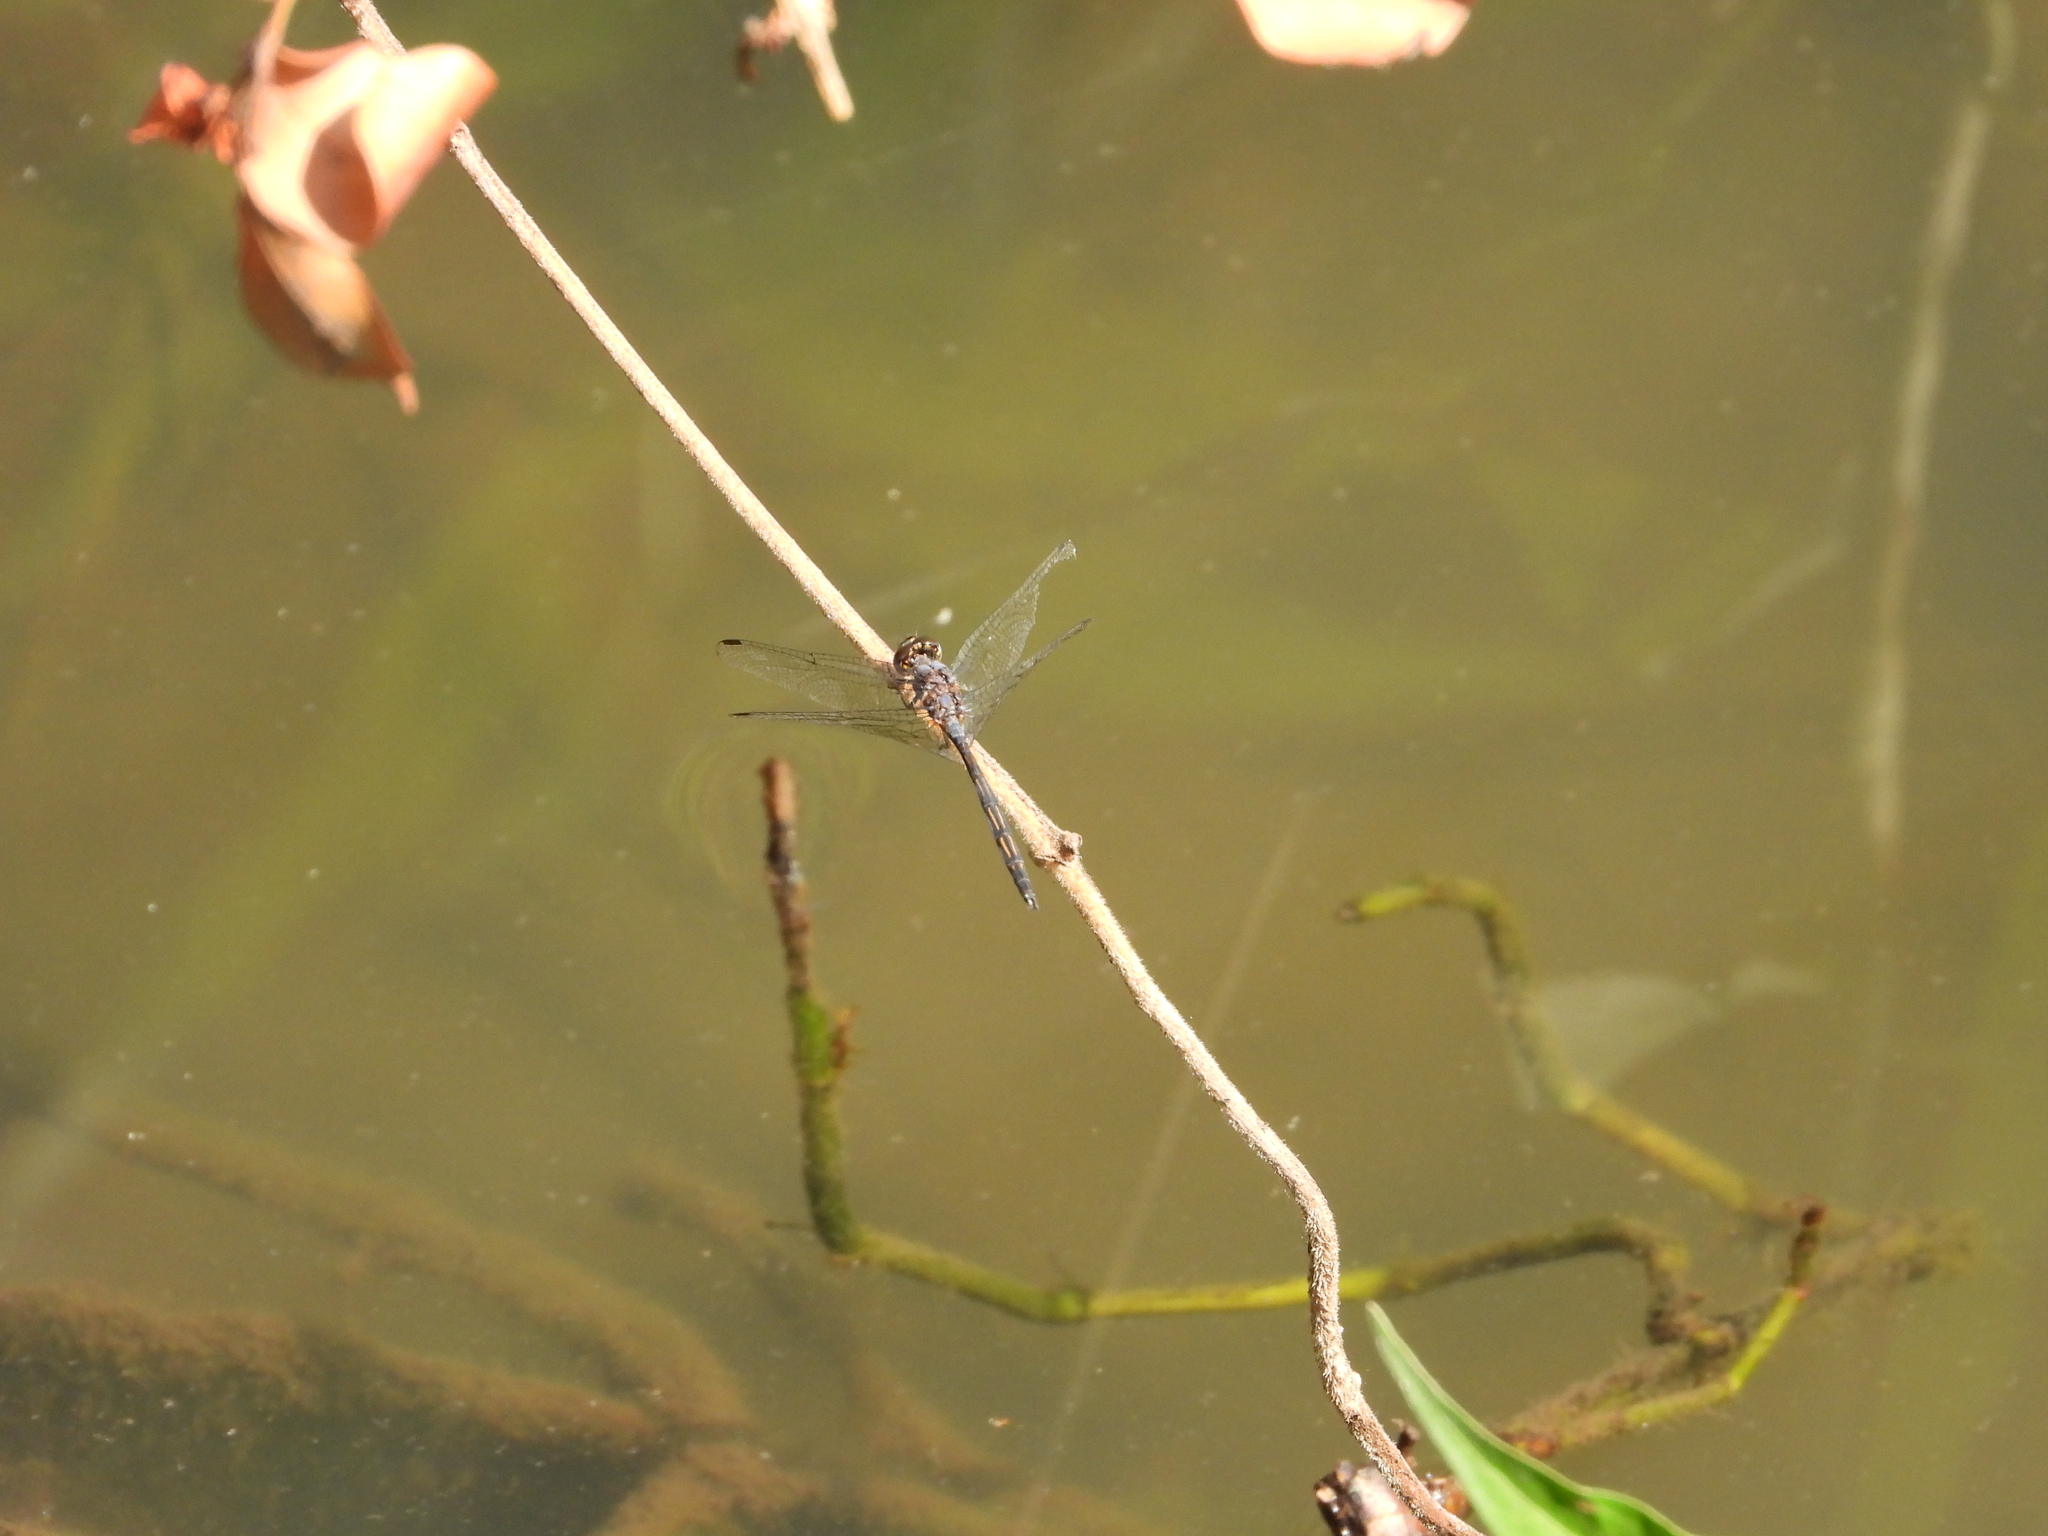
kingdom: Animalia
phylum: Arthropoda
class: Insecta
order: Odonata
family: Libellulidae
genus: Trithemis
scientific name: Trithemis aconita
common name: Halfshade dropwing
